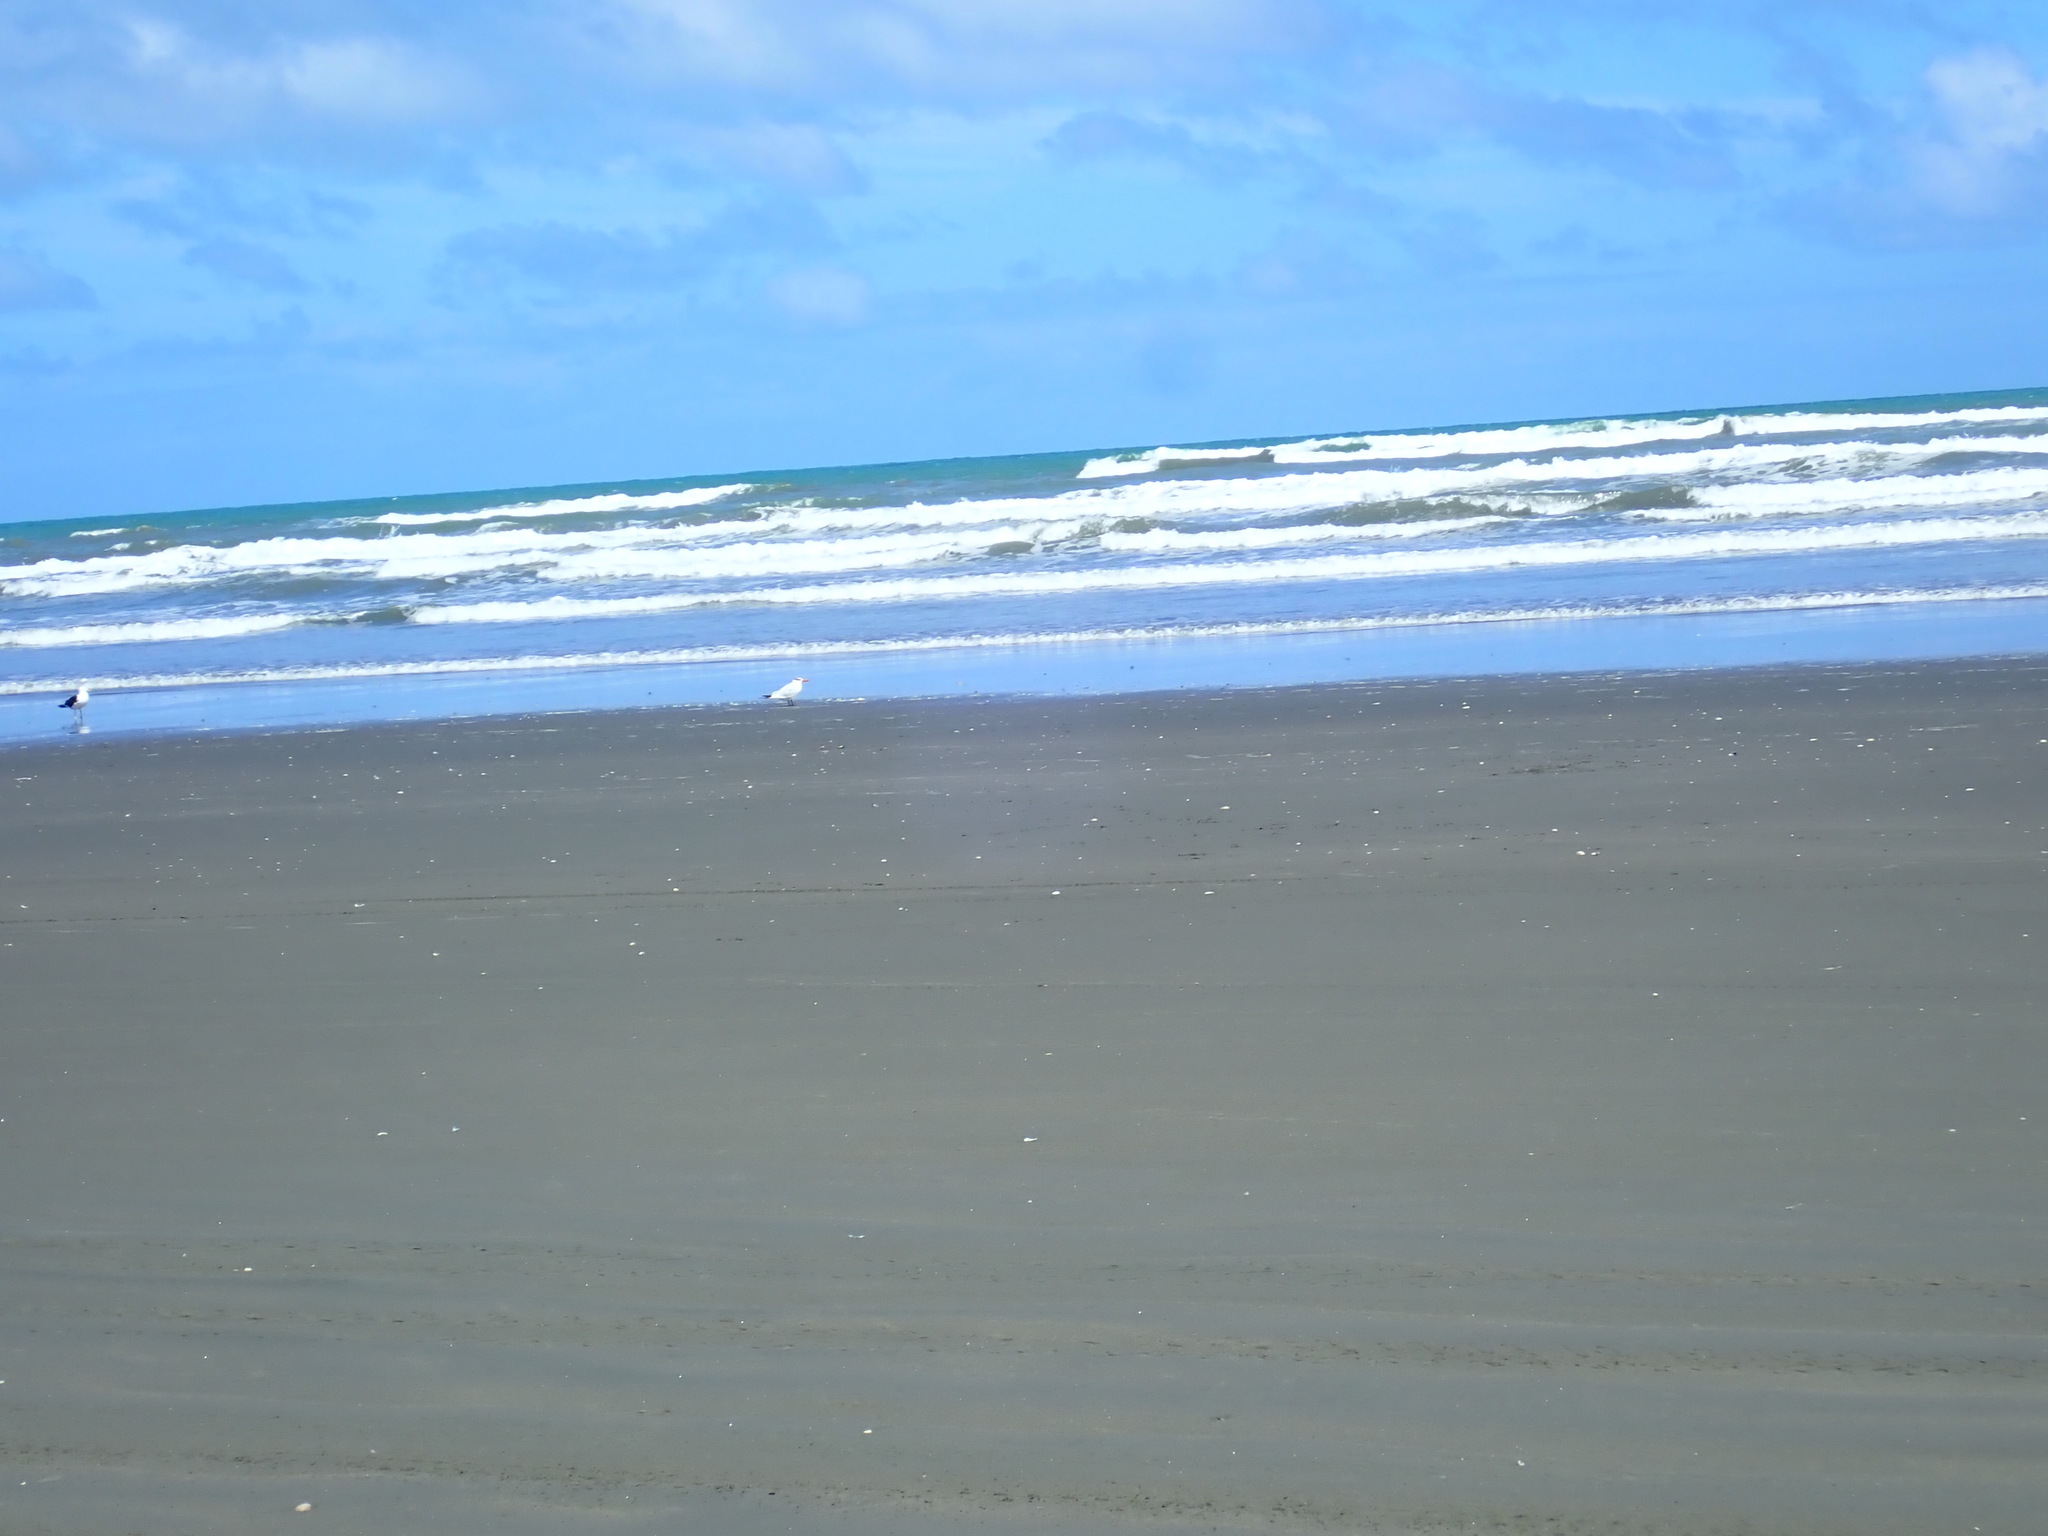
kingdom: Animalia
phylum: Chordata
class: Aves
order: Charadriiformes
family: Laridae
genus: Hydroprogne
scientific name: Hydroprogne caspia
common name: Caspian tern
